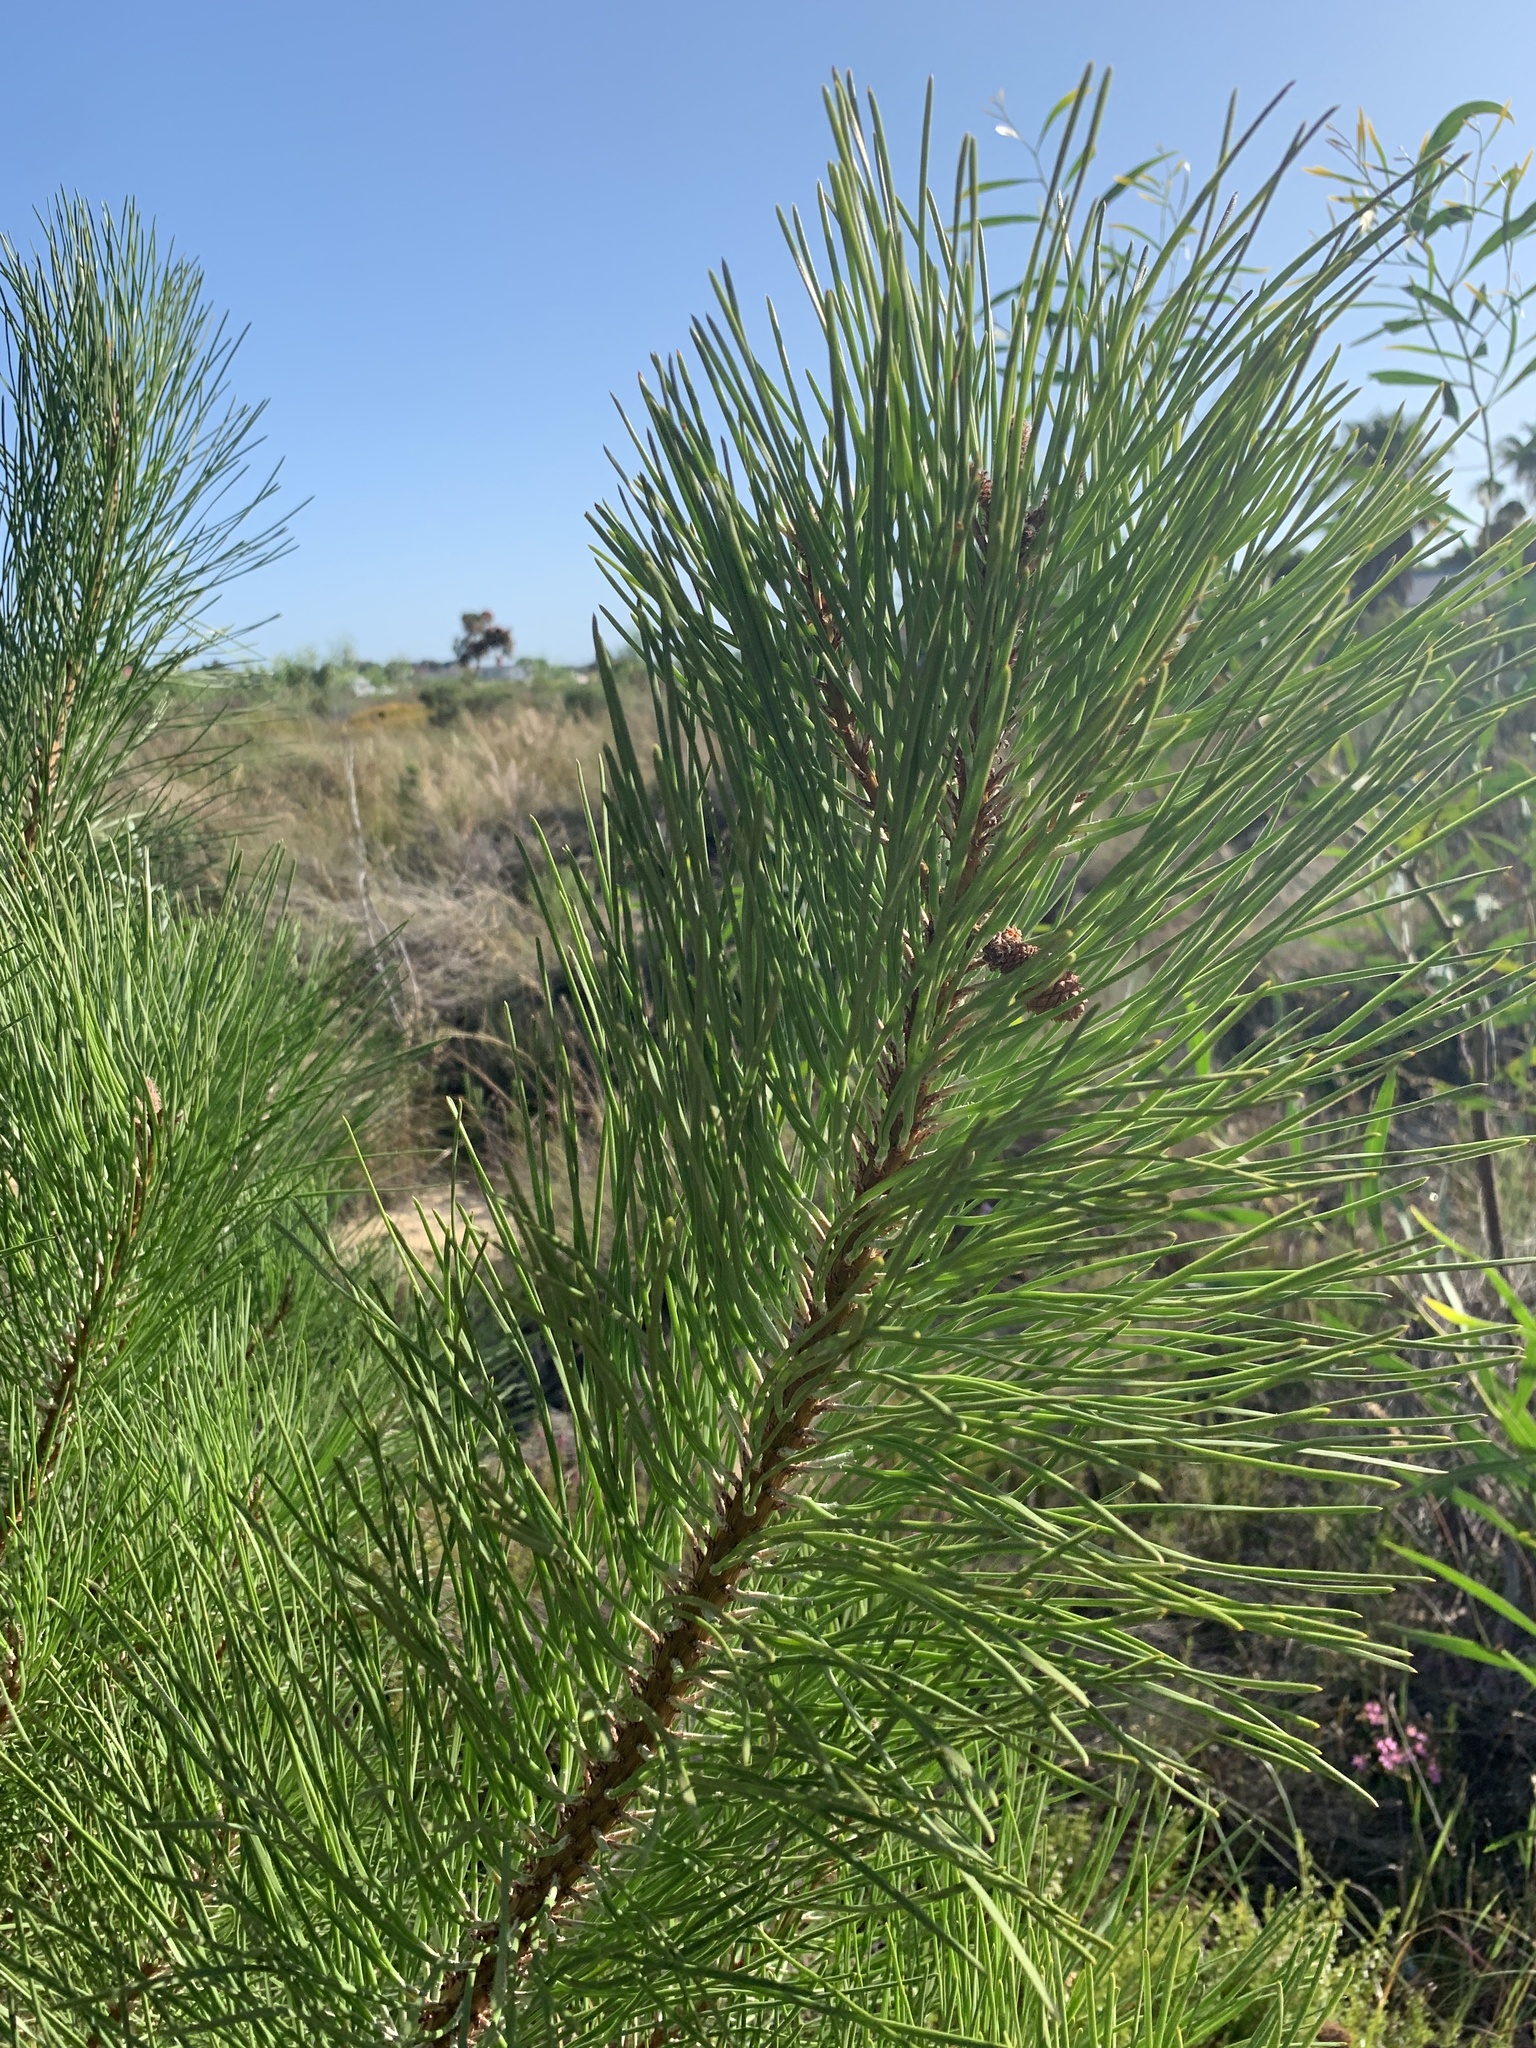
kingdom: Plantae
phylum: Tracheophyta
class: Pinopsida
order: Pinales
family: Pinaceae
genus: Pinus
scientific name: Pinus pinaster
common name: Maritime pine
